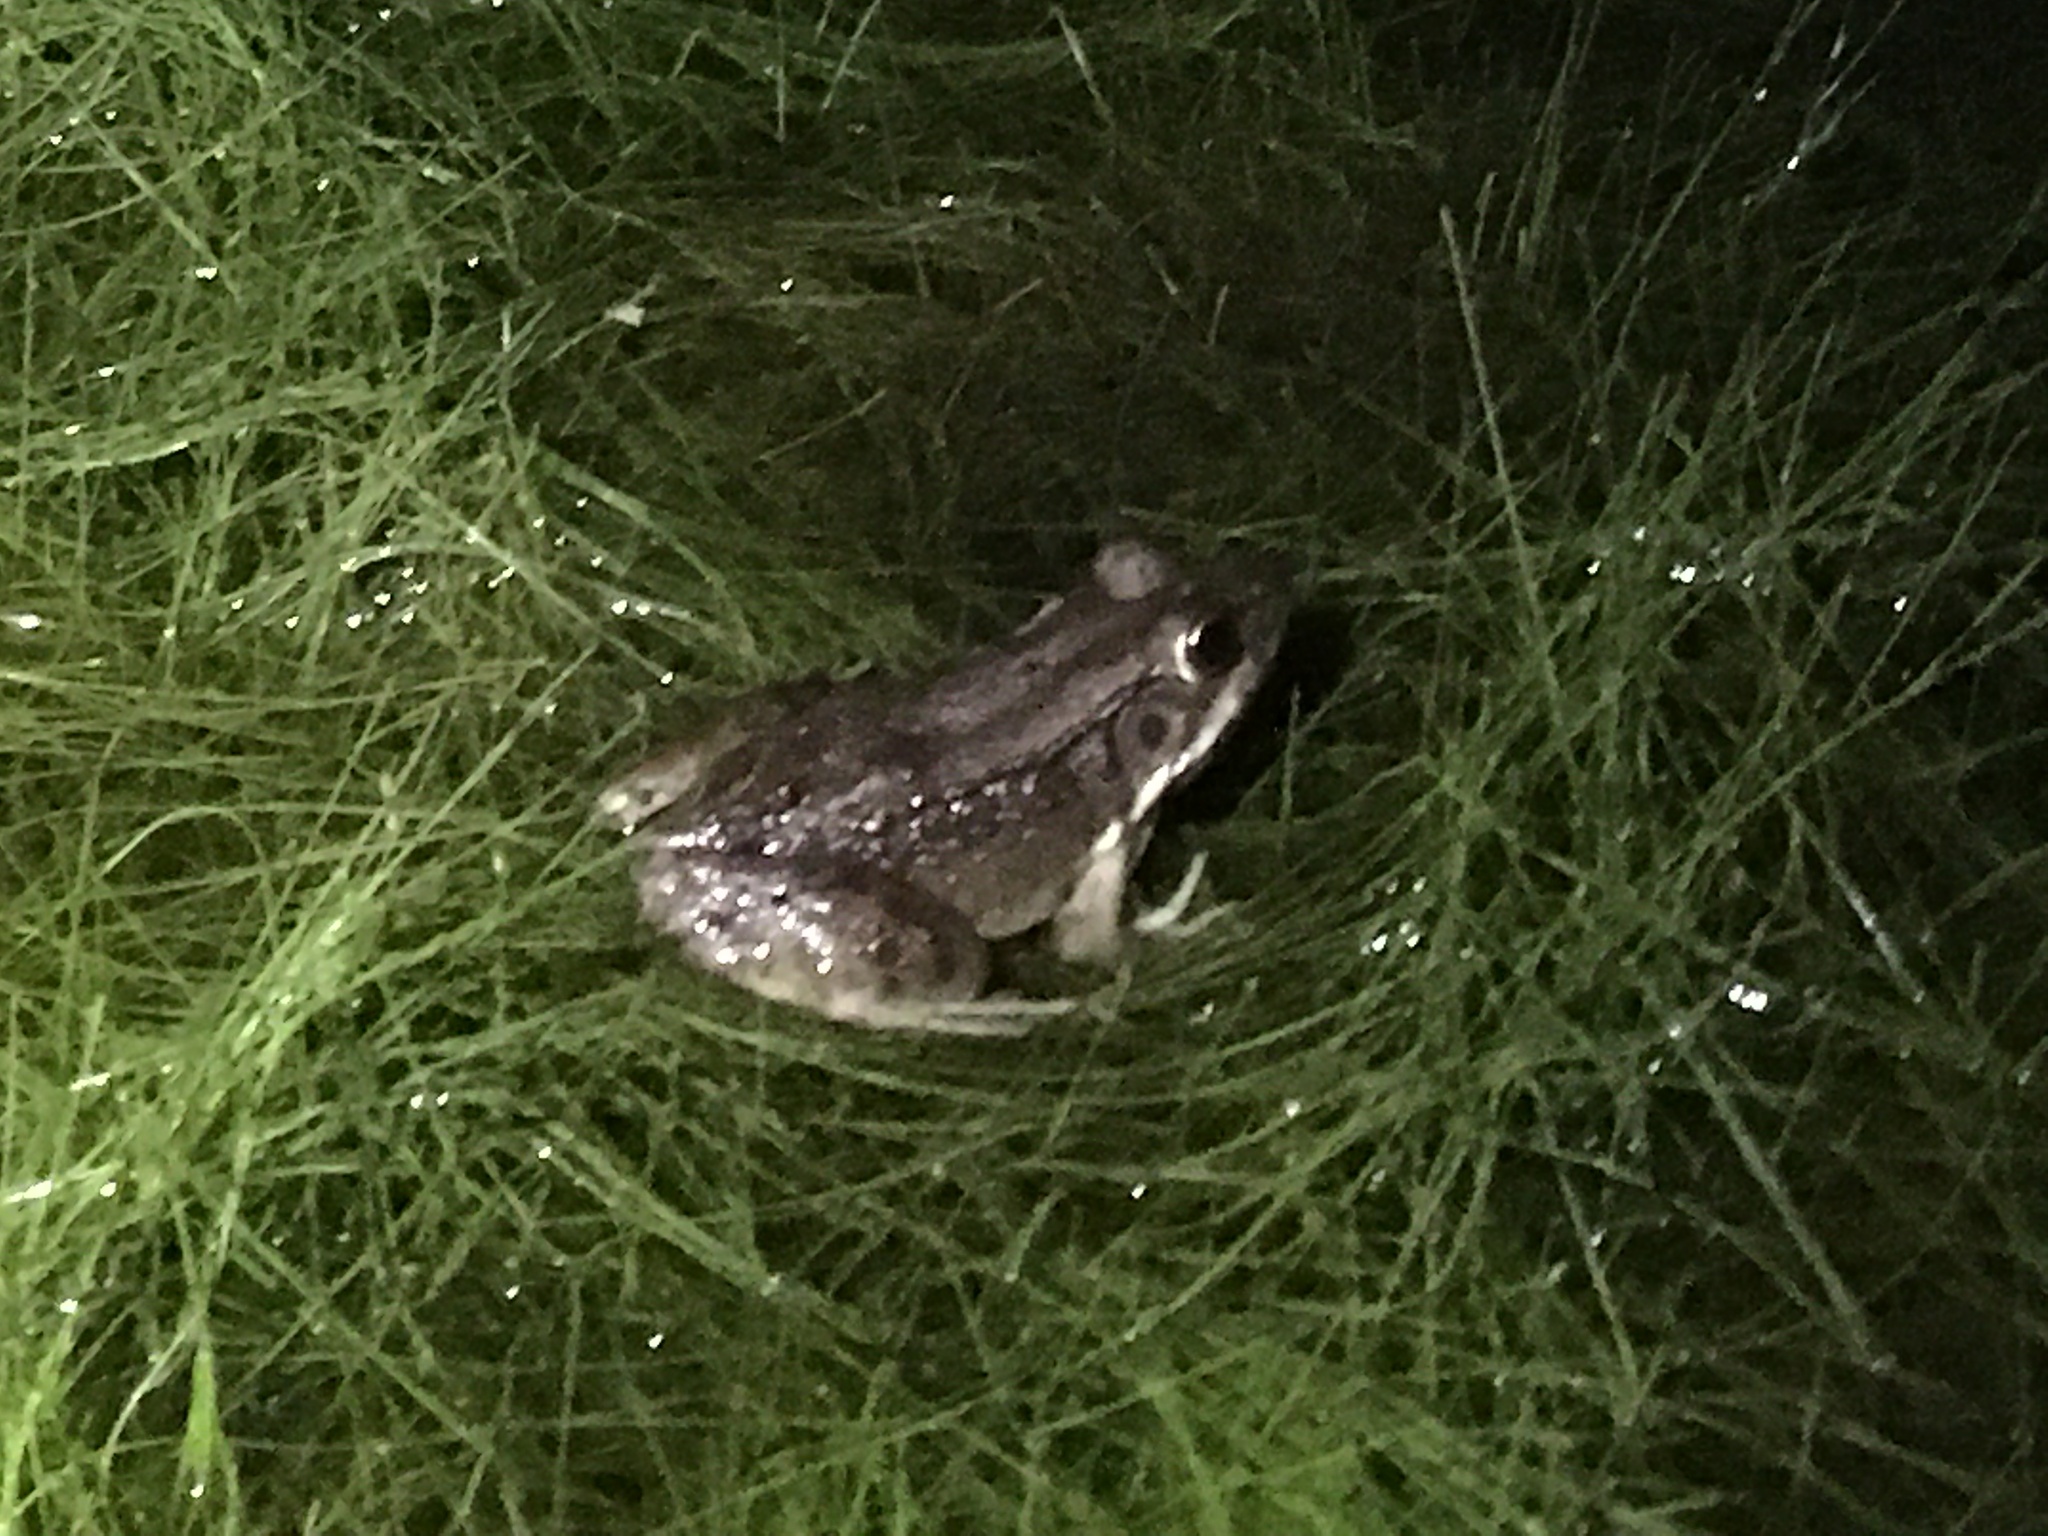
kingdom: Animalia
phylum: Chordata
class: Amphibia
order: Anura
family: Ranidae
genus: Lithobates
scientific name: Lithobates clamitans
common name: Green frog
